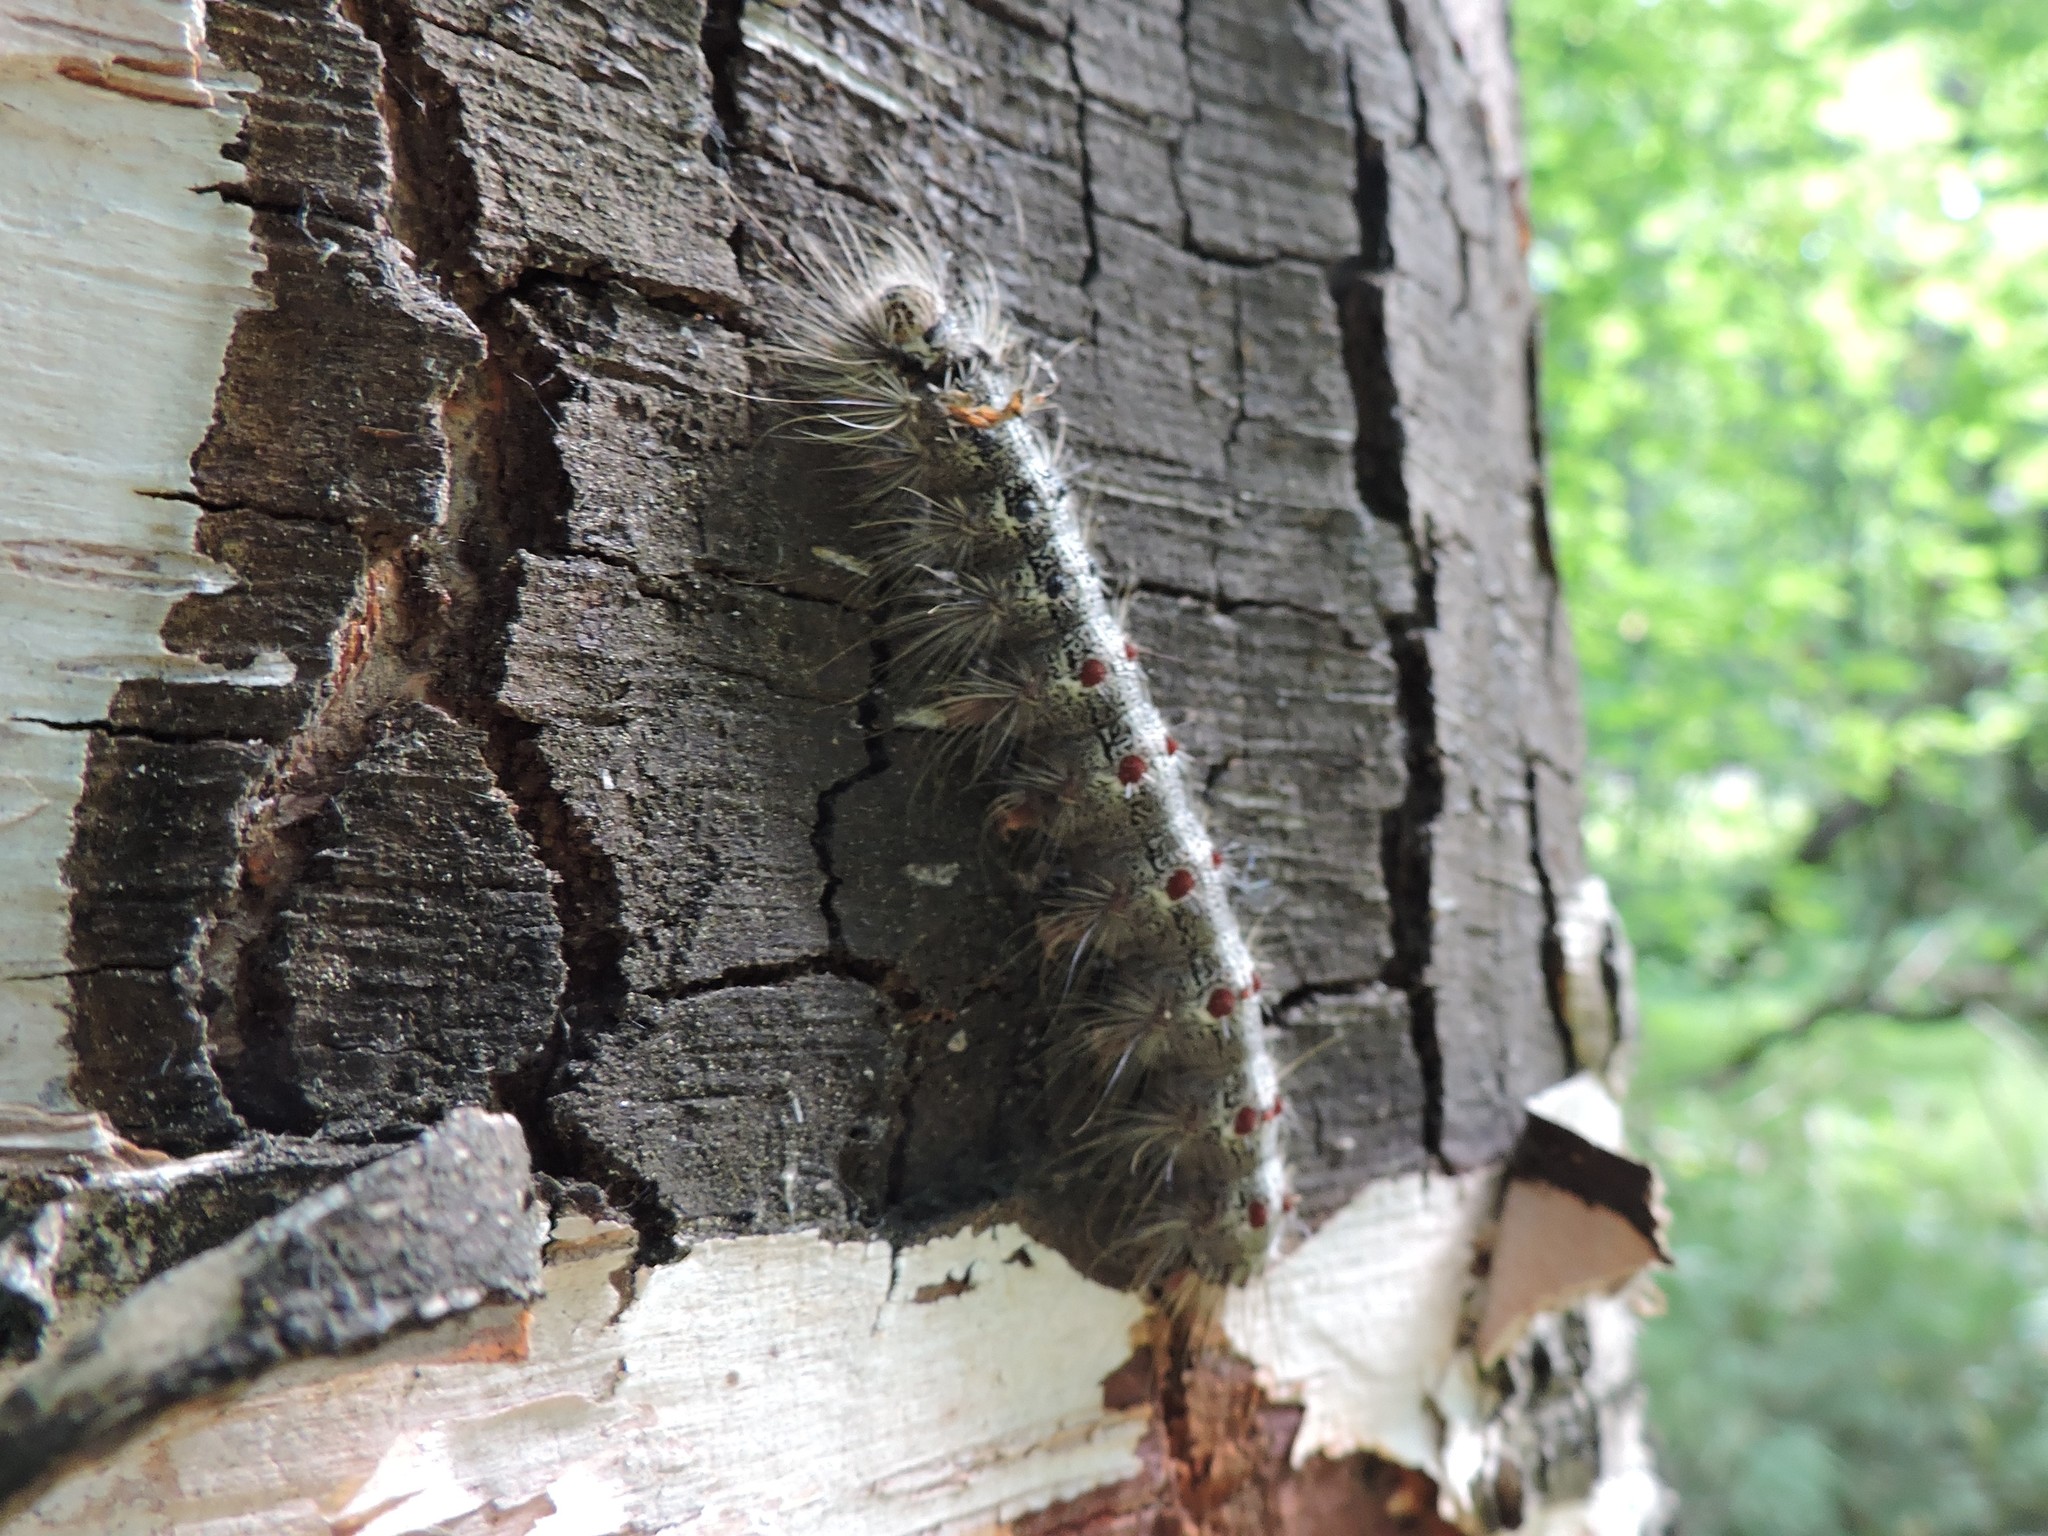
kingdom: Animalia
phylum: Arthropoda
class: Insecta
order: Lepidoptera
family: Erebidae
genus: Lymantria
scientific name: Lymantria dispar
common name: Gypsy moth
